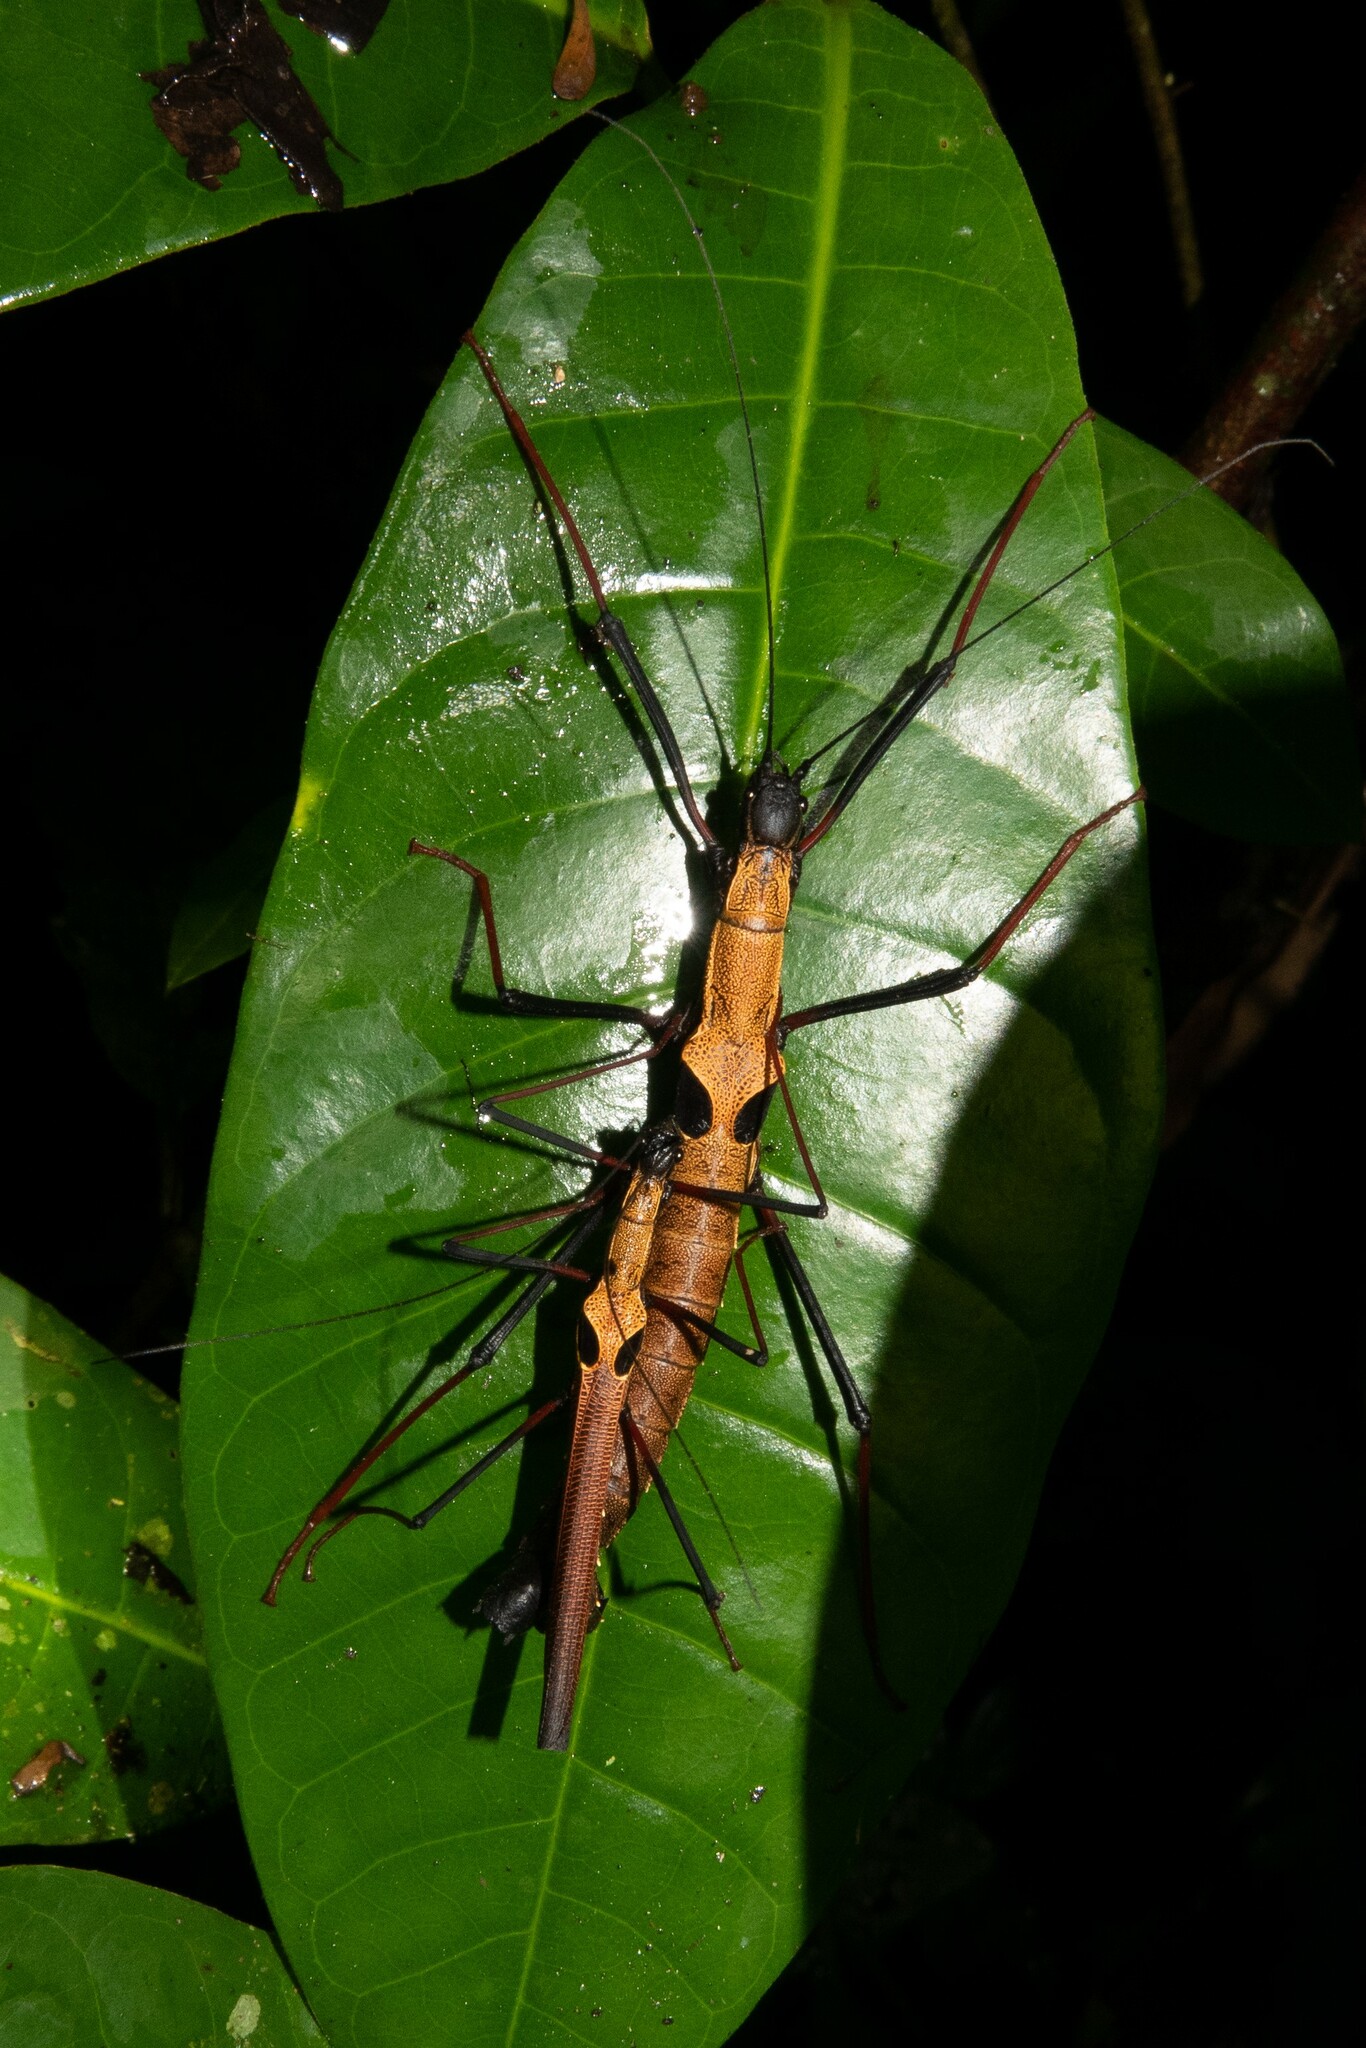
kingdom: Animalia
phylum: Arthropoda
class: Insecta
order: Phasmida
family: Pseudophasmatidae
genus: Pseudophasma
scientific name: Pseudophasma scabriusculum
